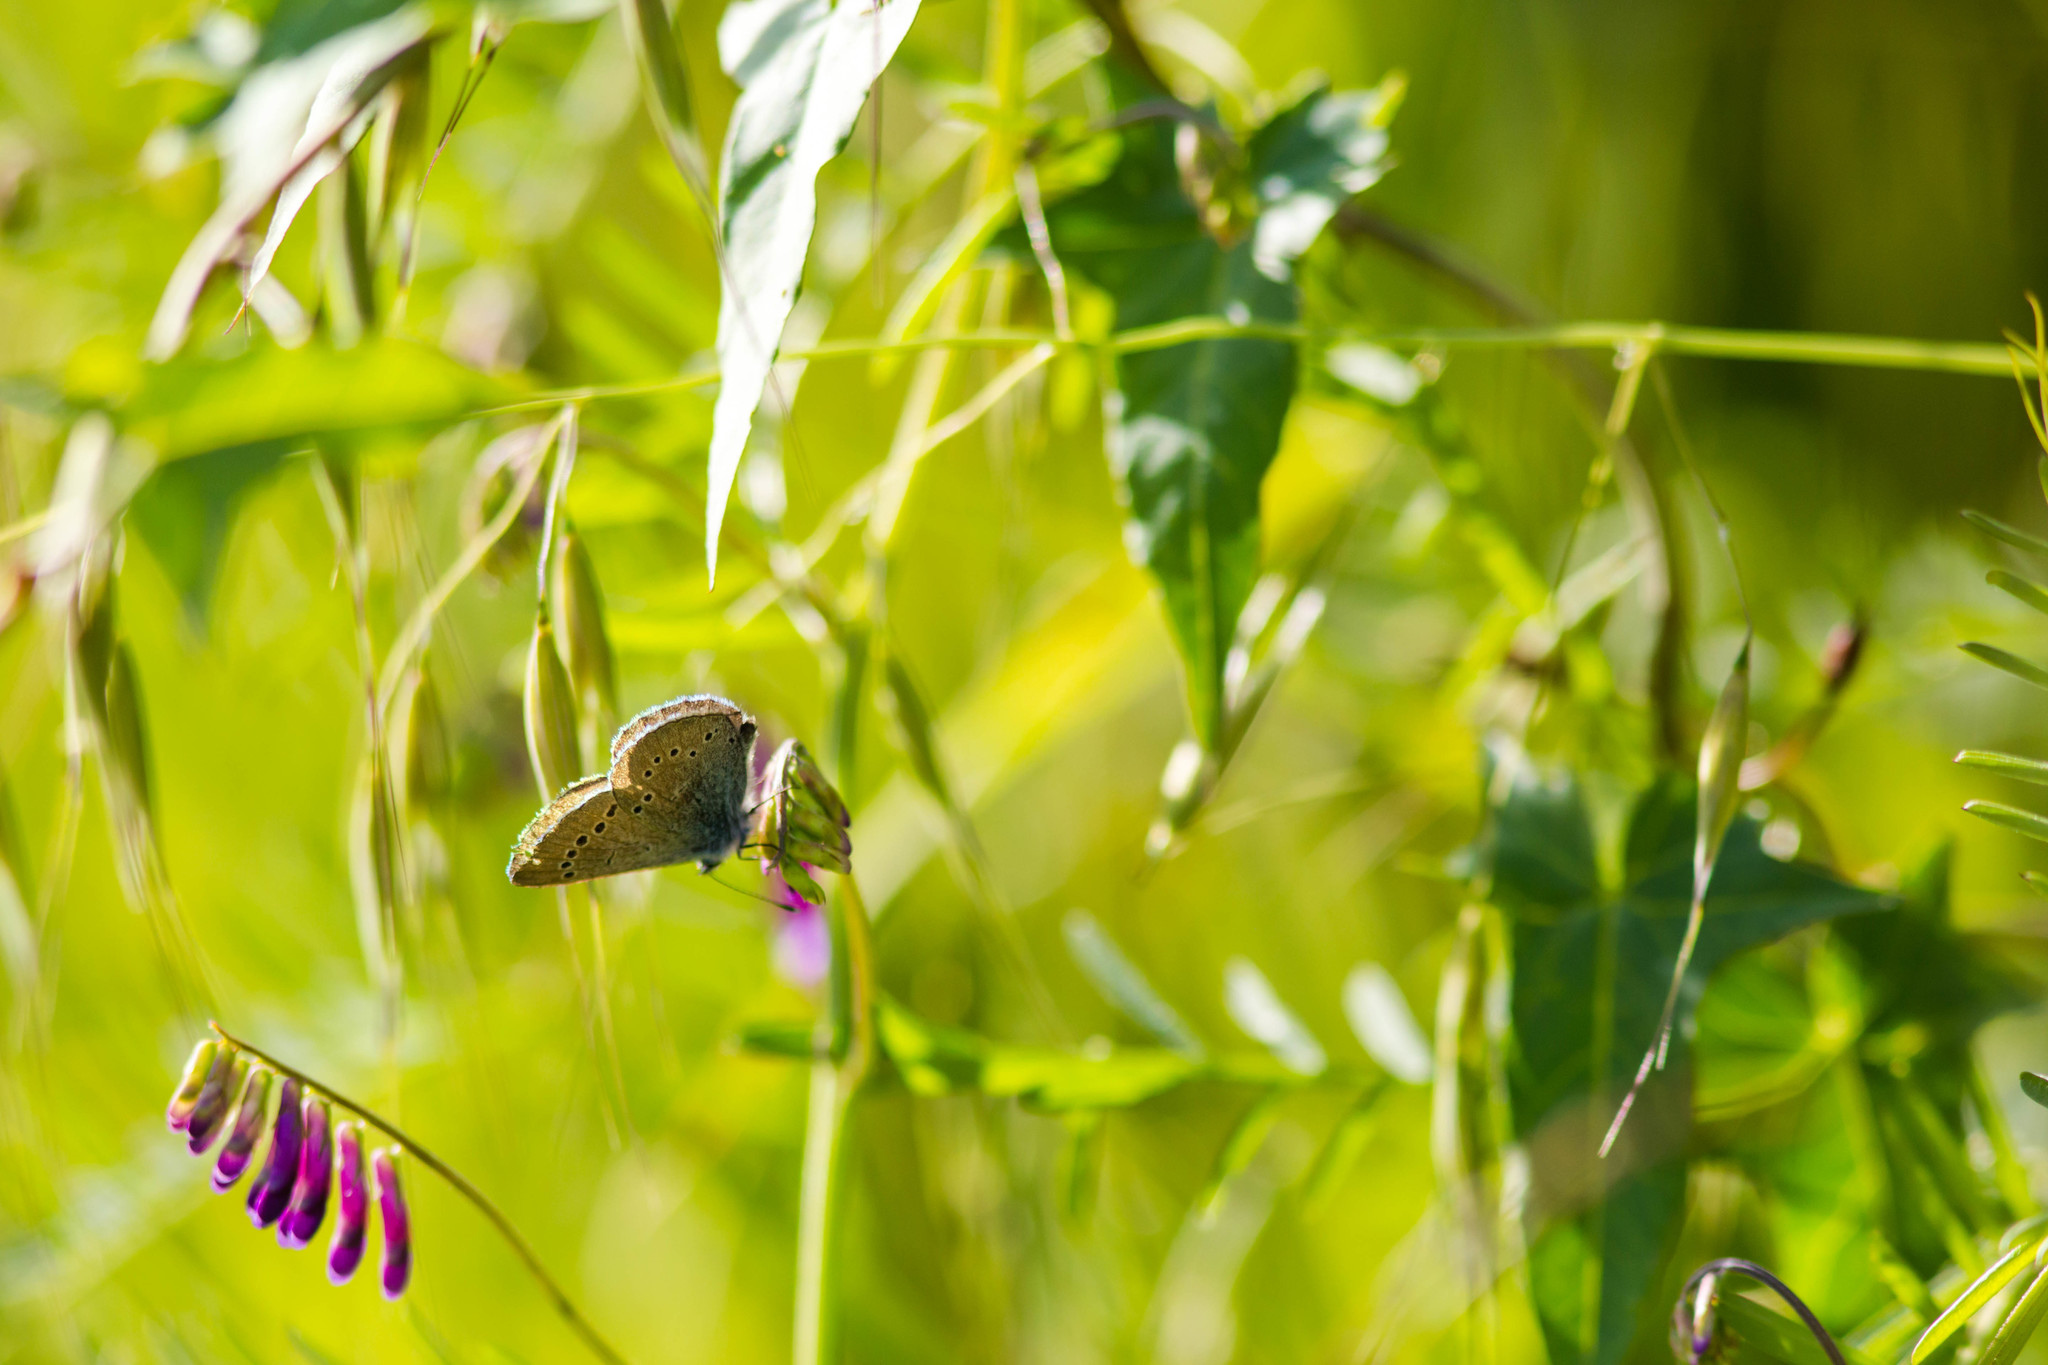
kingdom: Animalia
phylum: Arthropoda
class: Insecta
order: Lepidoptera
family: Lycaenidae
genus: Glaucopsyche
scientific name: Glaucopsyche lygdamus
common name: Silvery blue
